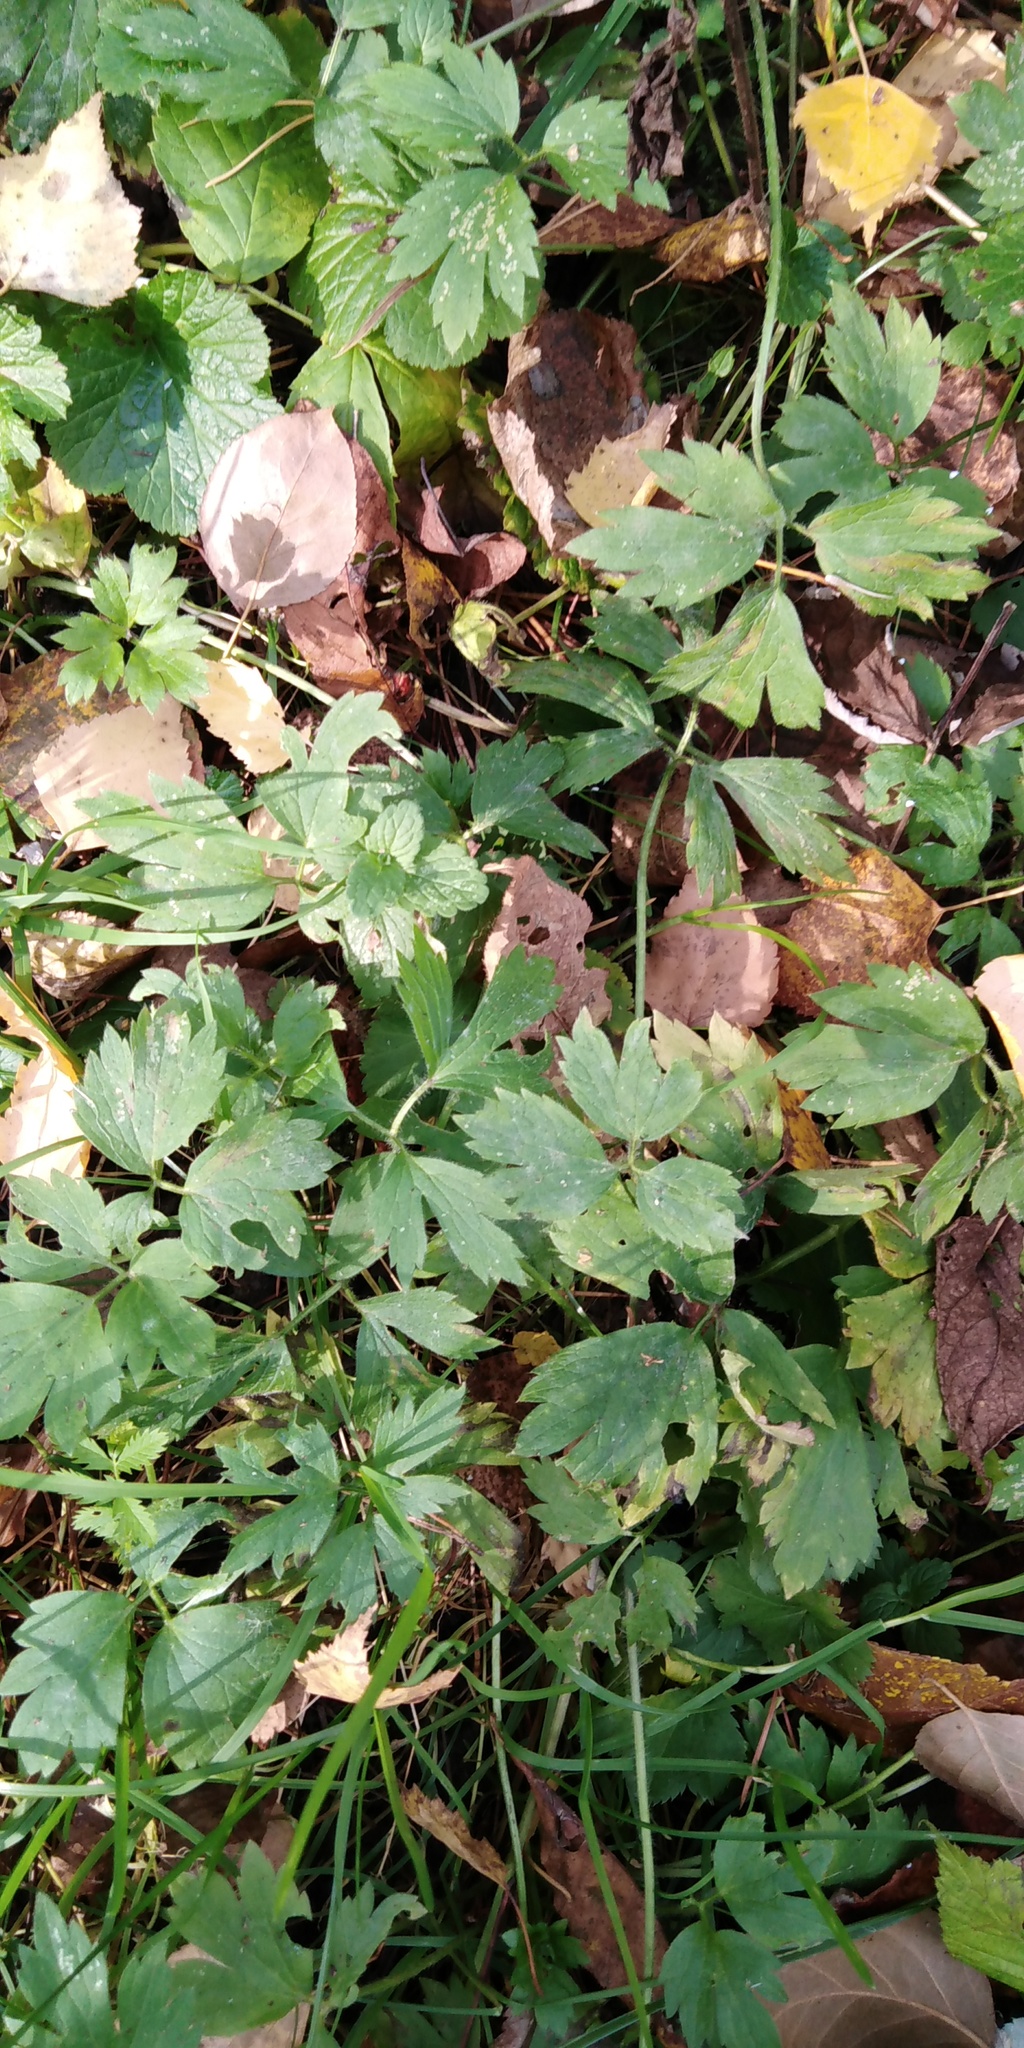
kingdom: Plantae
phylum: Tracheophyta
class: Magnoliopsida
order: Ranunculales
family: Ranunculaceae
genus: Ranunculus
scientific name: Ranunculus repens
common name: Creeping buttercup
